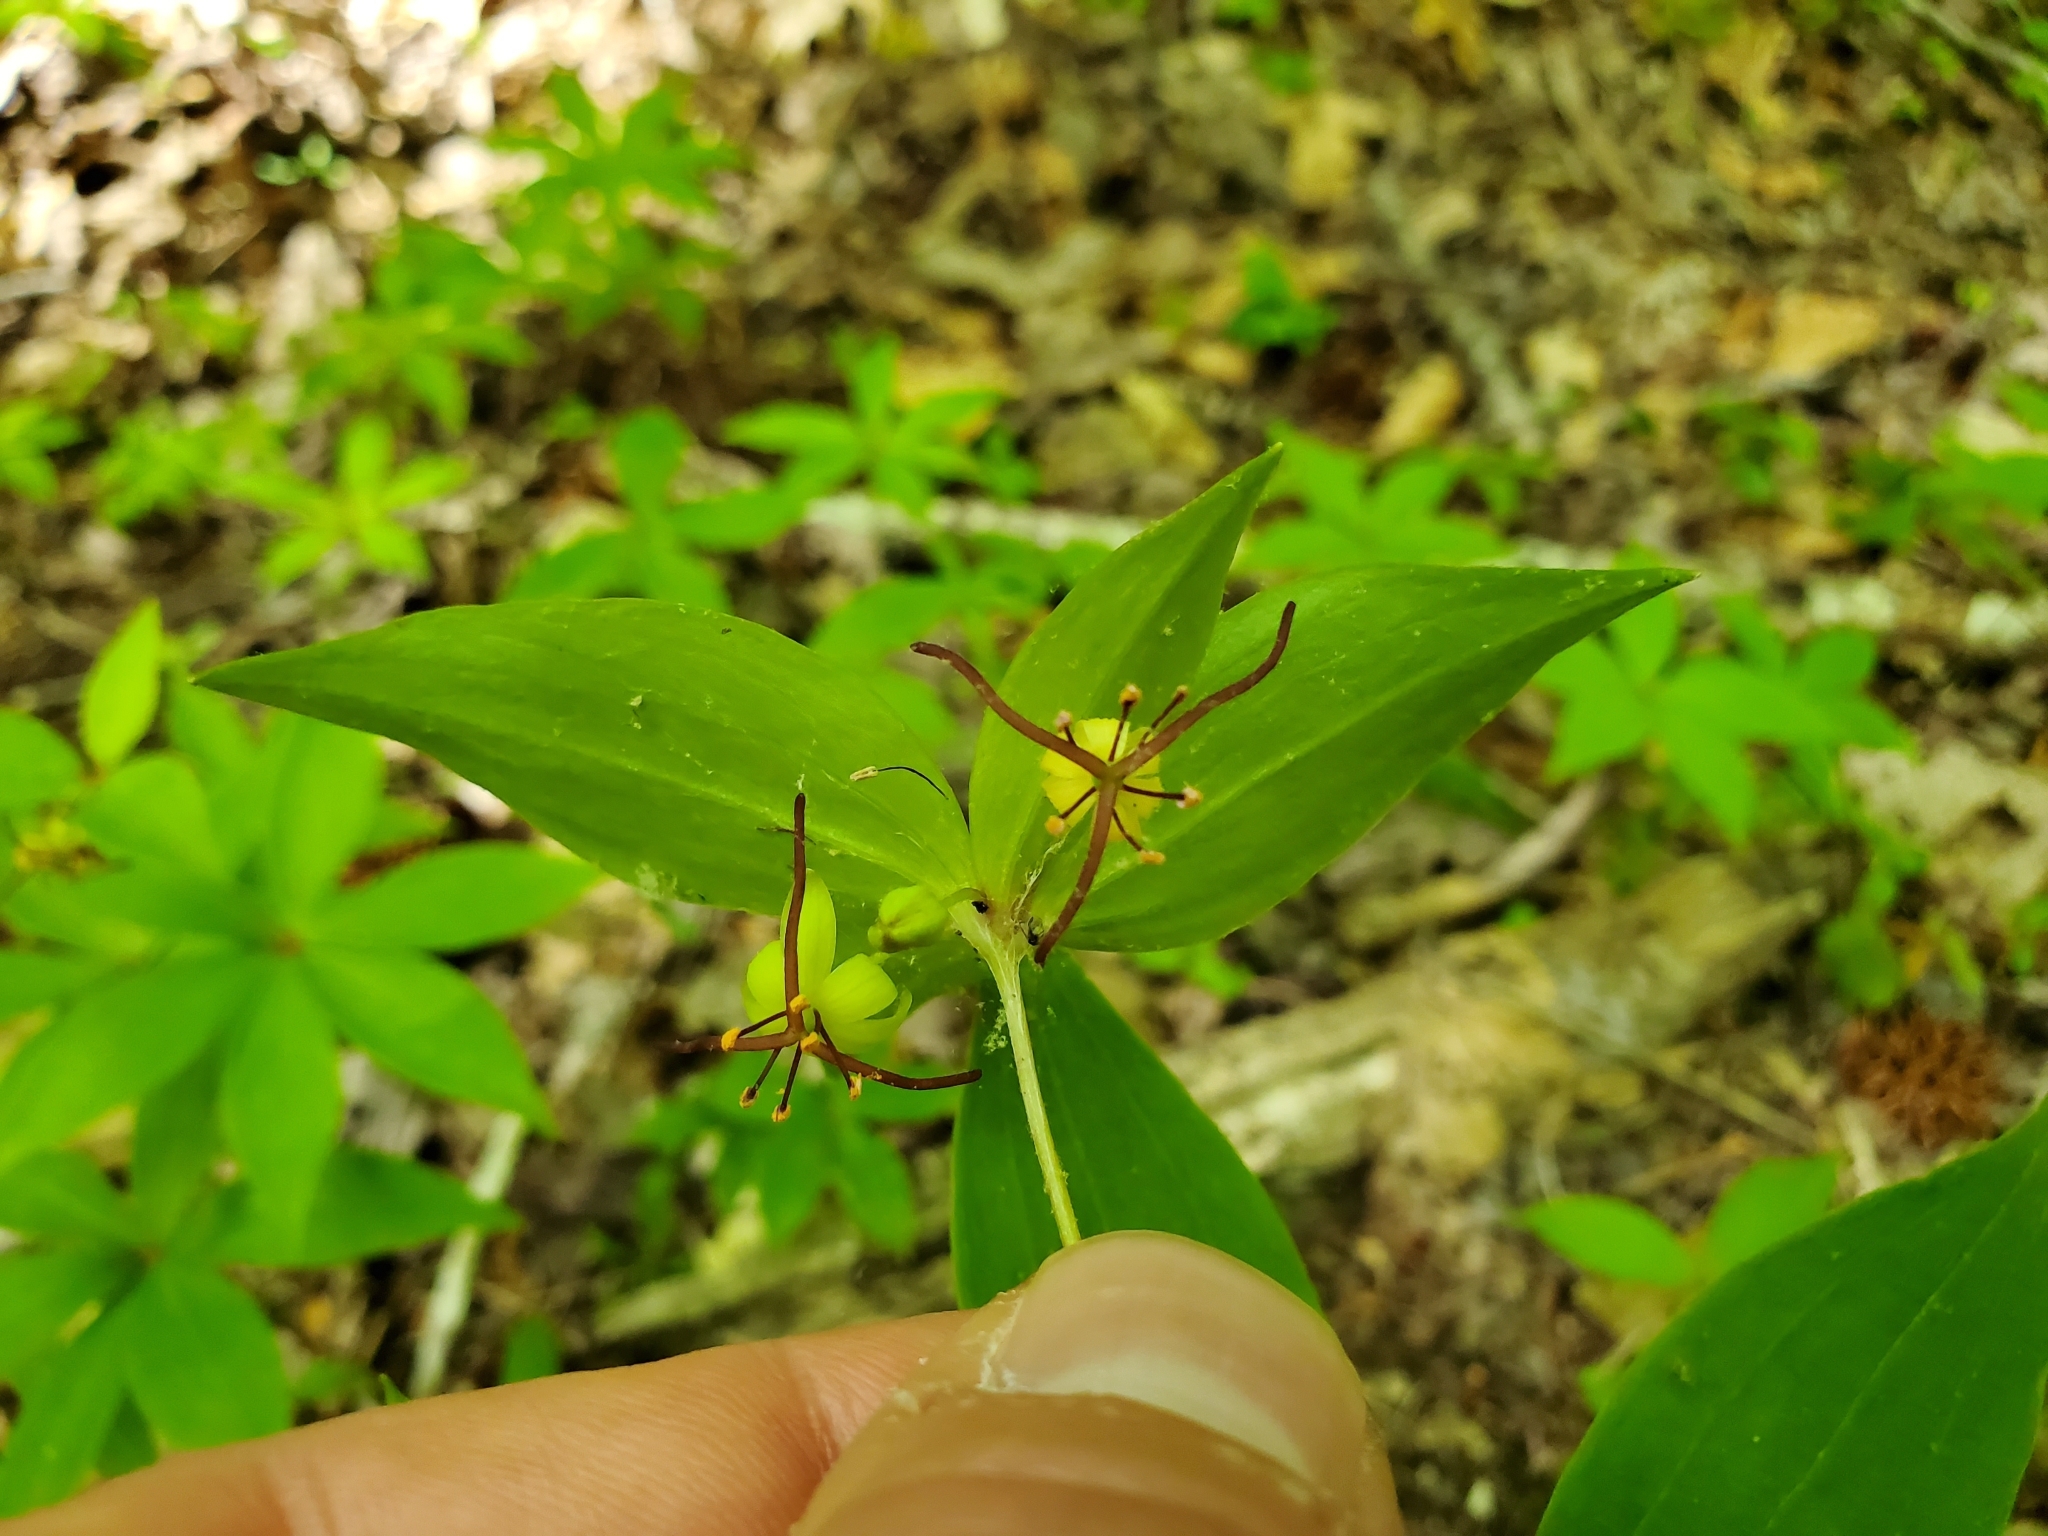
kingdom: Plantae
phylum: Tracheophyta
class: Liliopsida
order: Liliales
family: Liliaceae
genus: Medeola
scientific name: Medeola virginiana
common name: Indian cucumber-root
